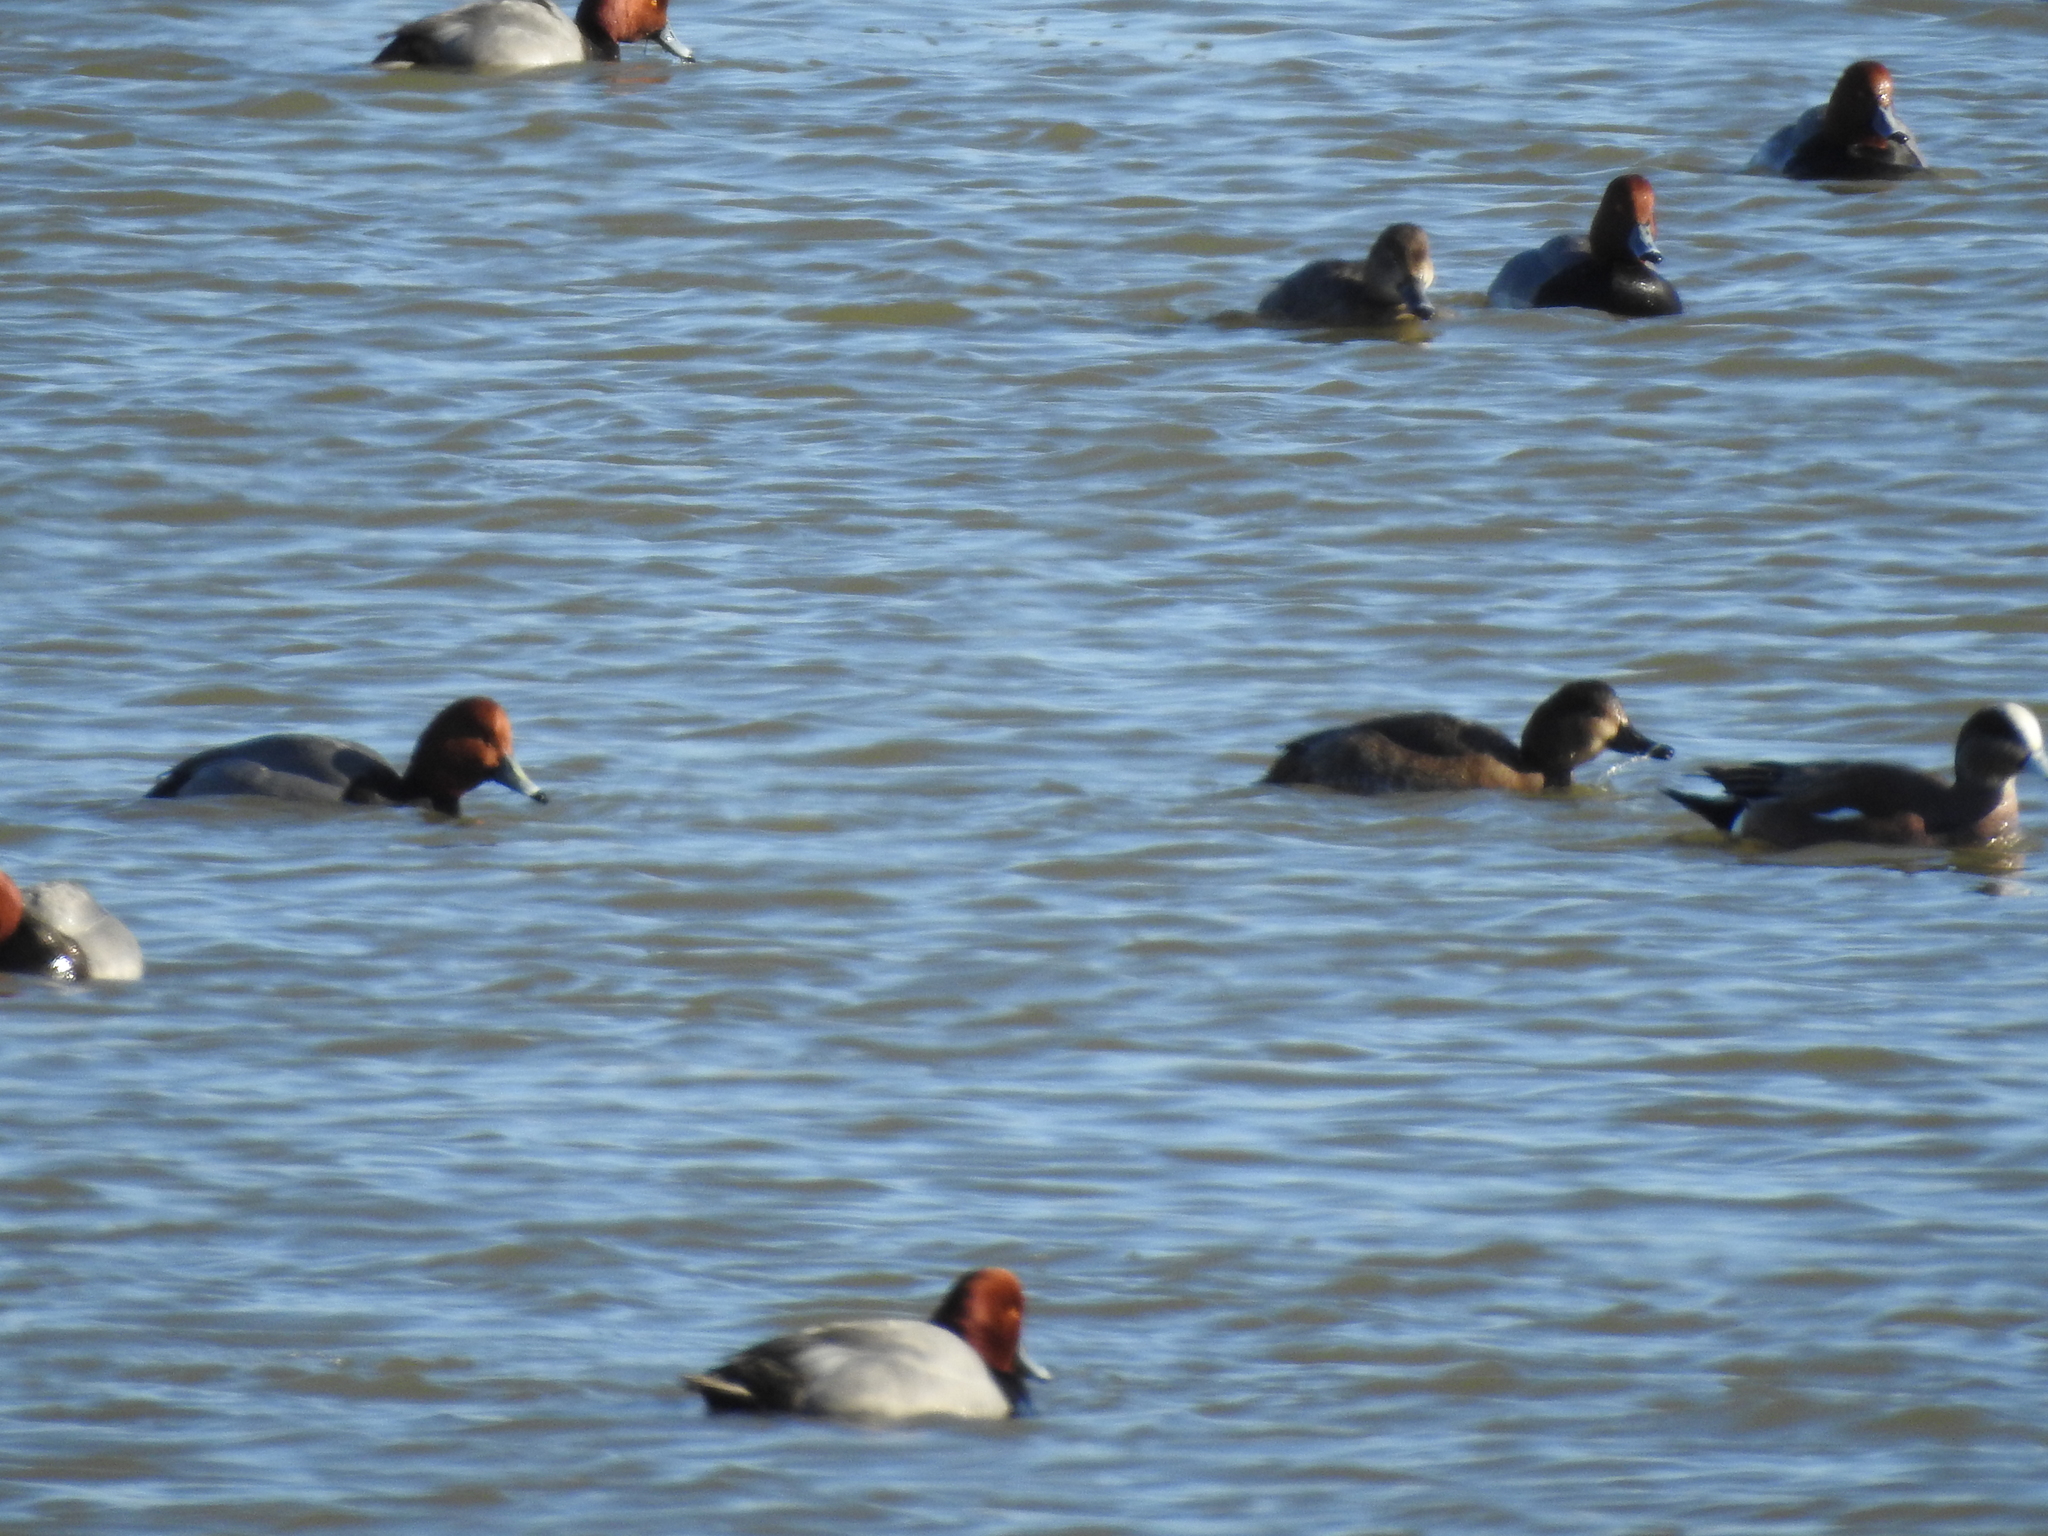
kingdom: Animalia
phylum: Chordata
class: Aves
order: Anseriformes
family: Anatidae
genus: Aythya
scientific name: Aythya americana
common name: Redhead
